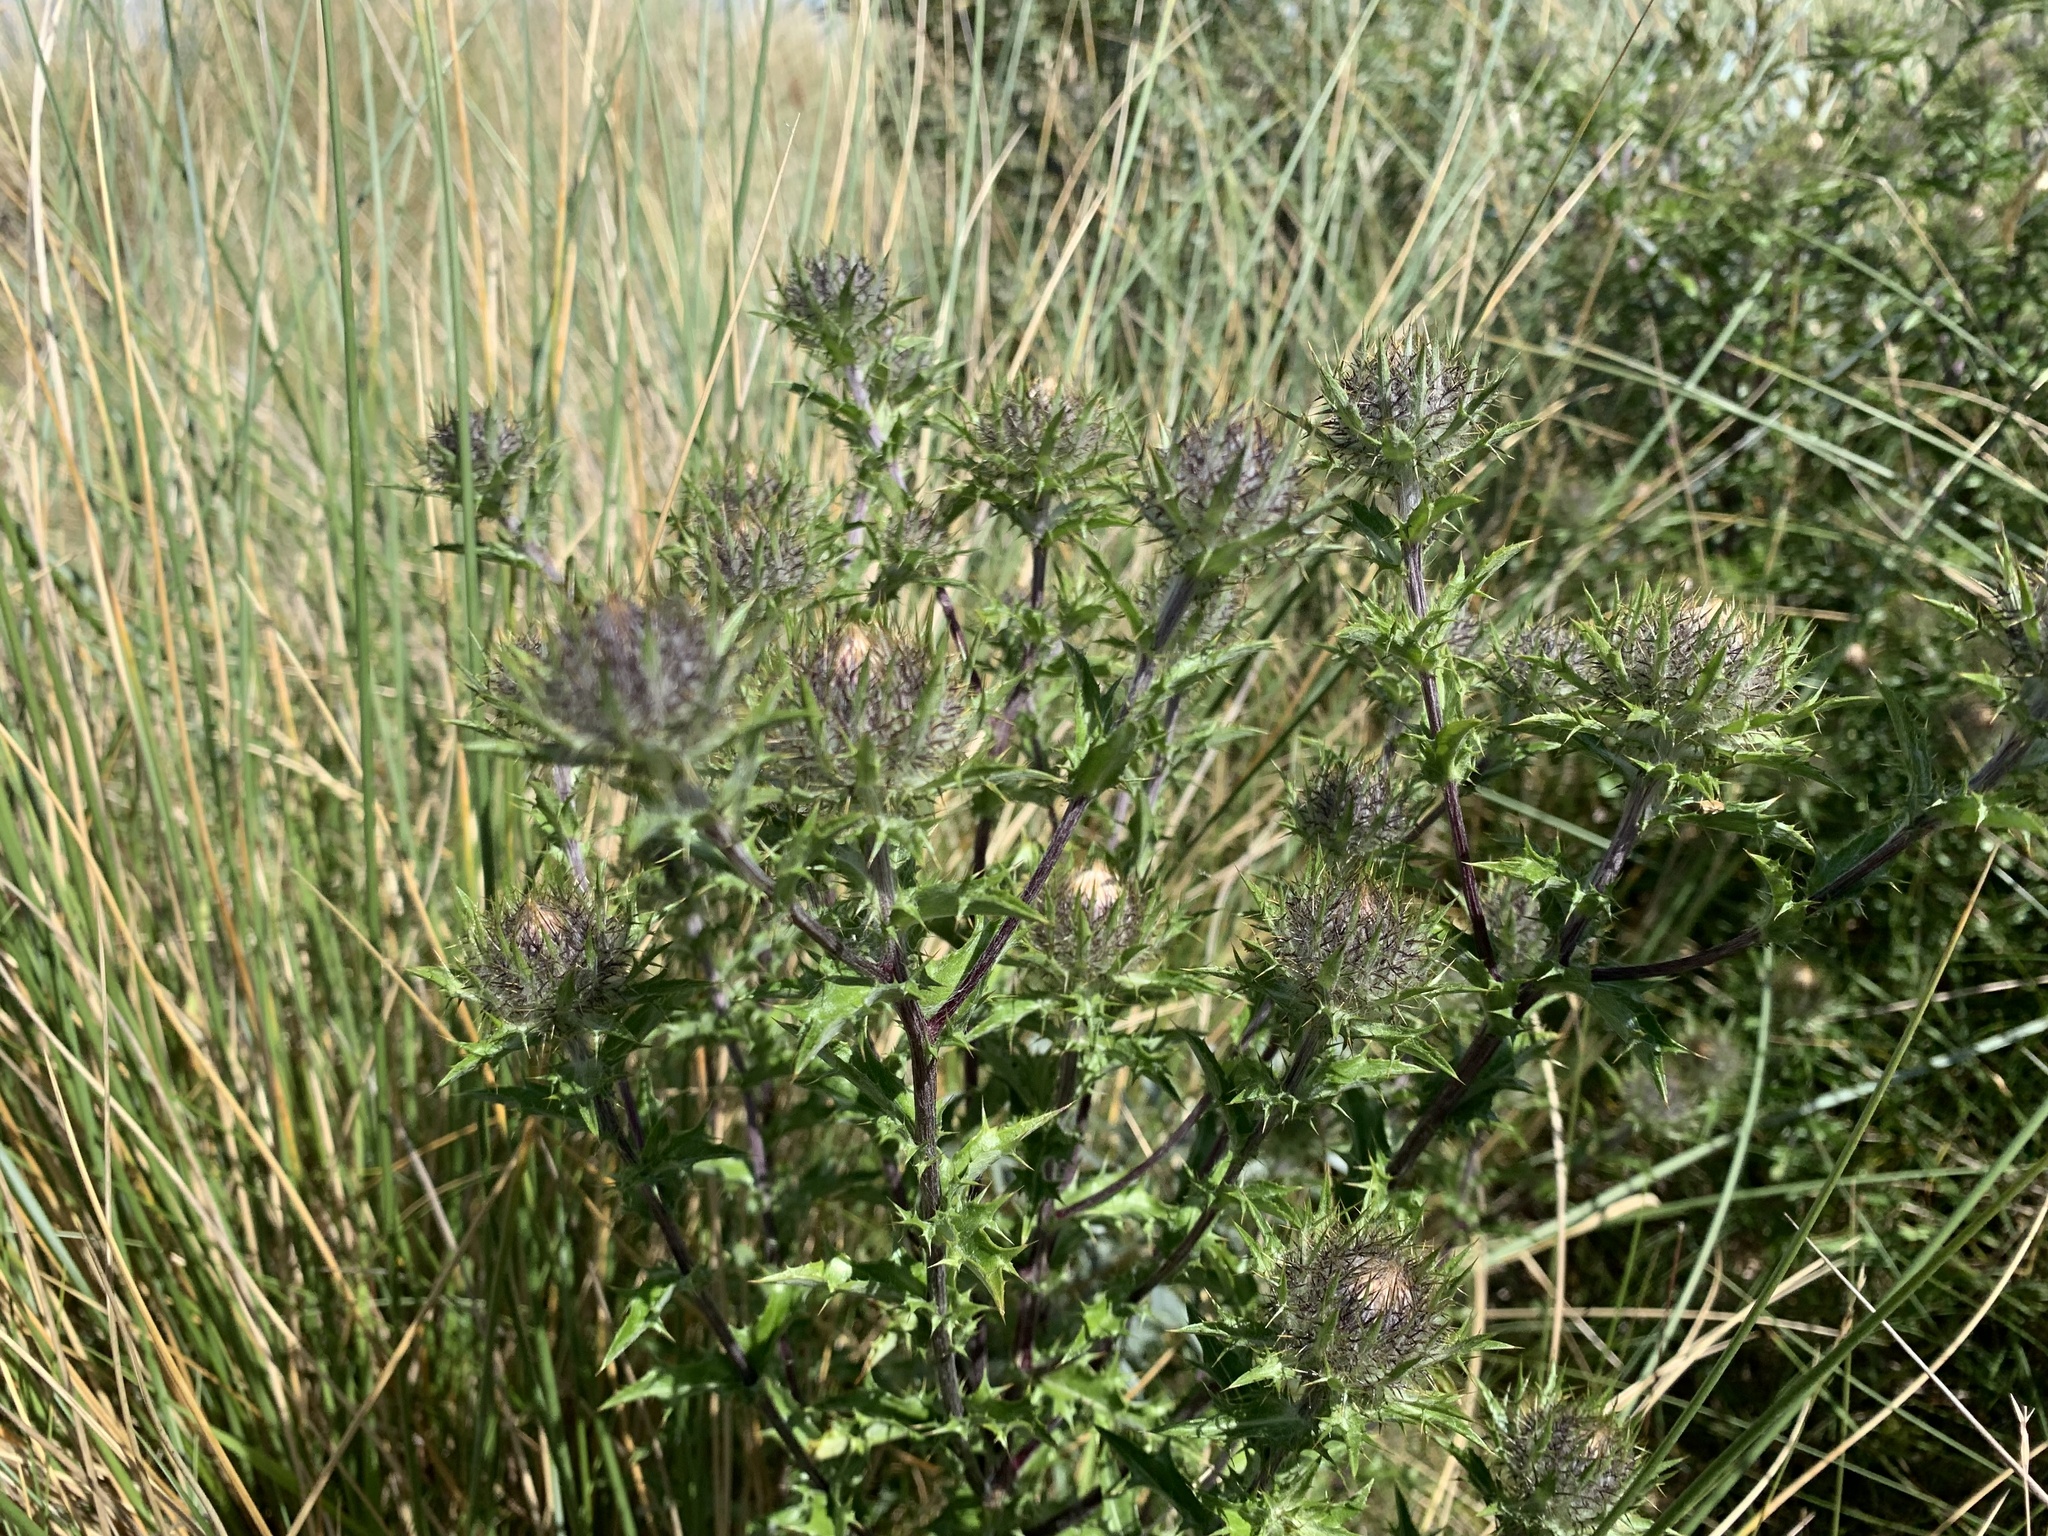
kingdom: Plantae
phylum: Tracheophyta
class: Magnoliopsida
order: Asterales
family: Asteraceae
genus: Carlina
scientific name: Carlina vulgaris
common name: Carline thistle
